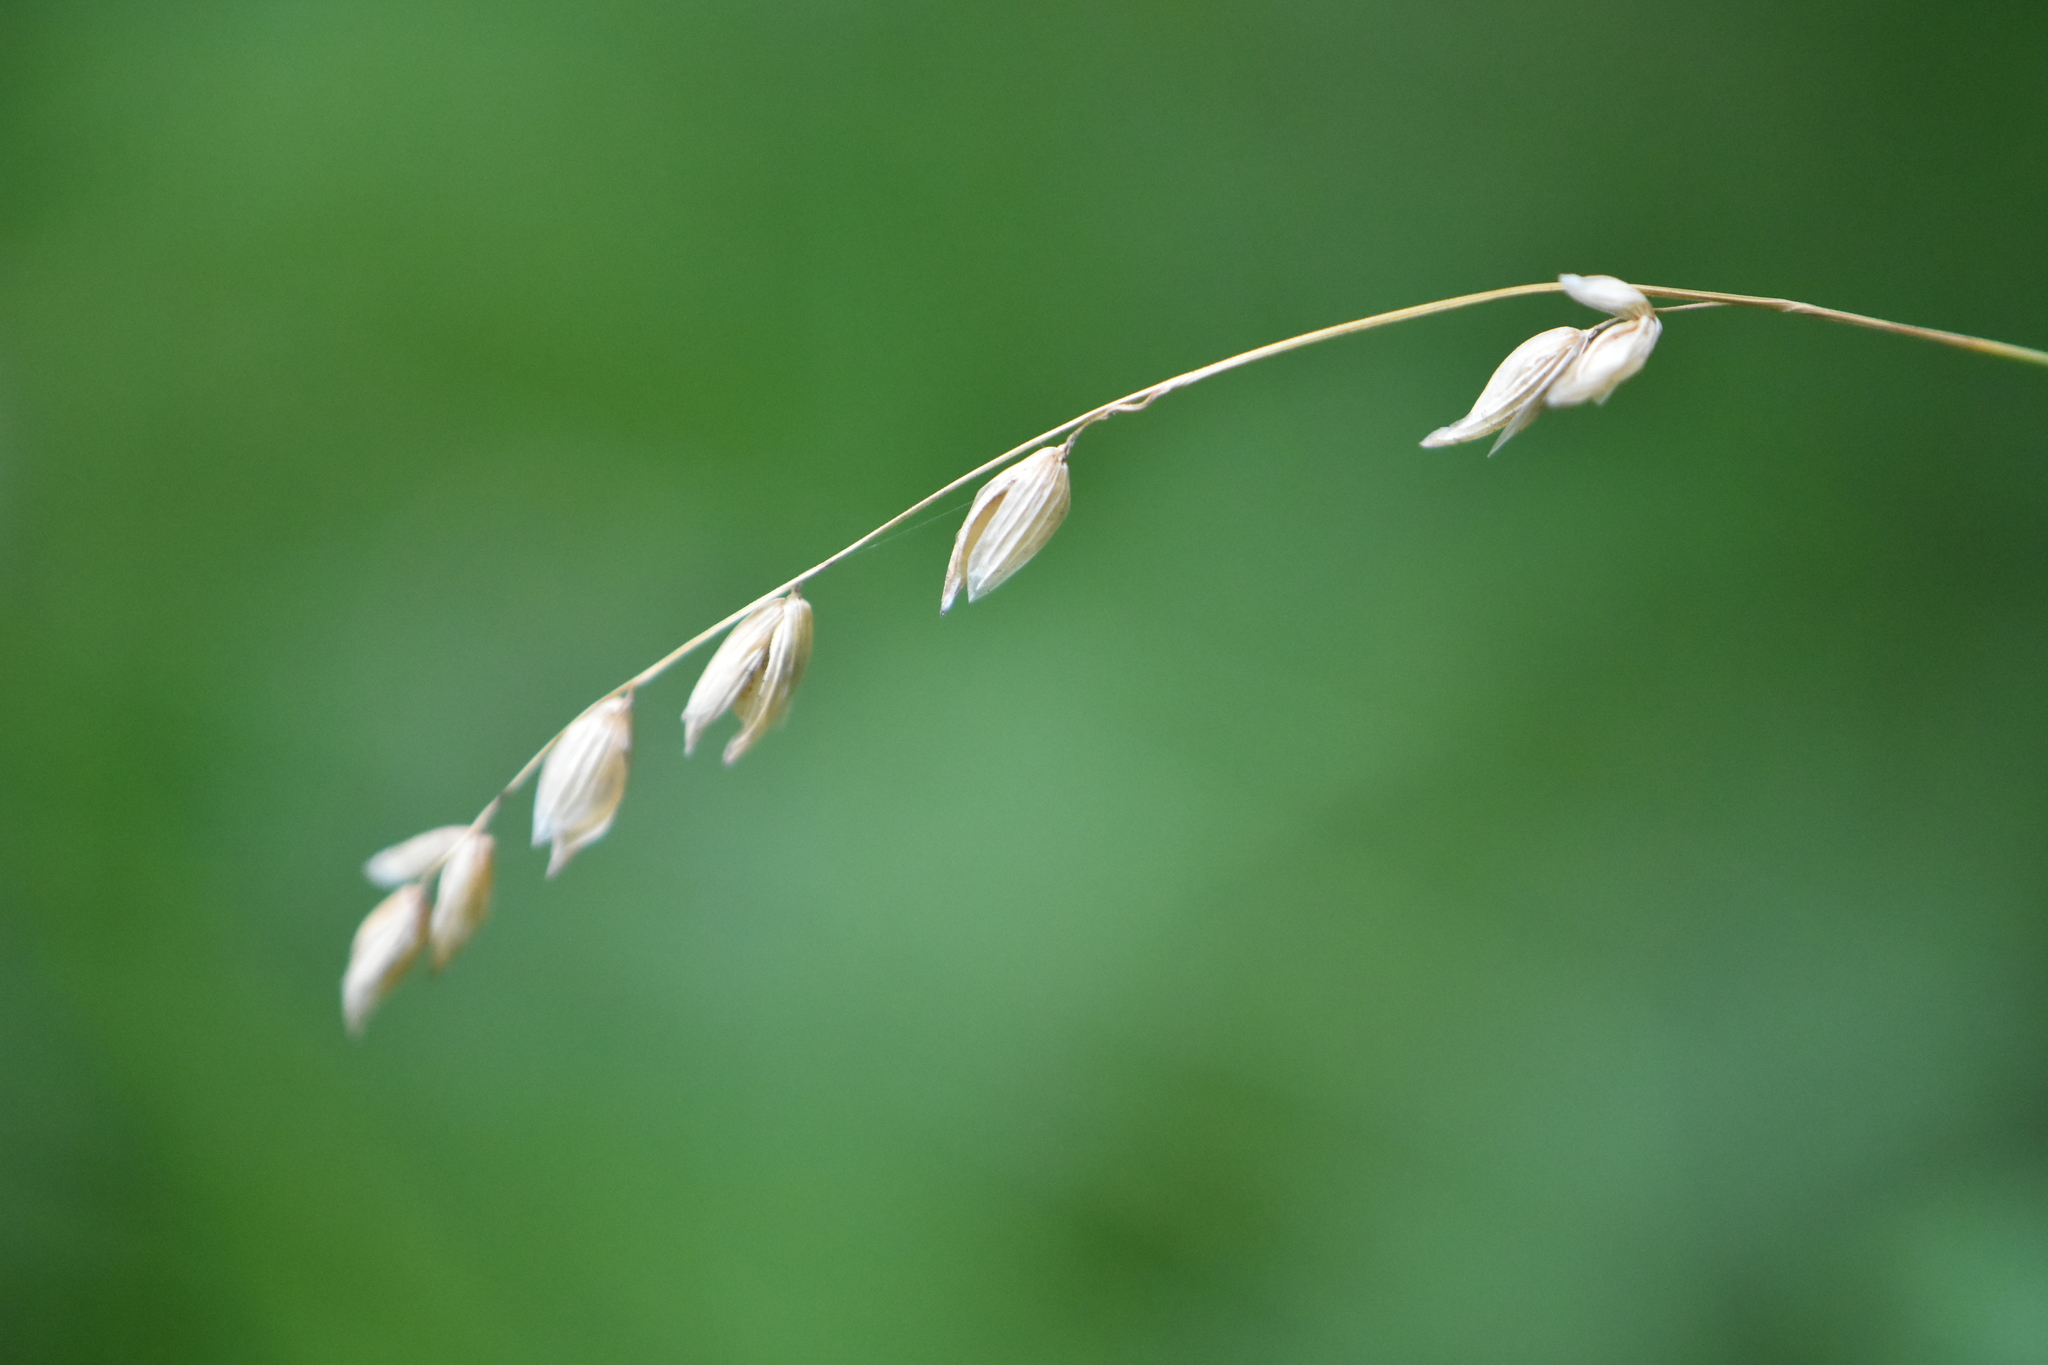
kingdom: Plantae
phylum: Tracheophyta
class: Liliopsida
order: Poales
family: Poaceae
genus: Melica
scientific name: Melica nutans
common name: Mountain melick
